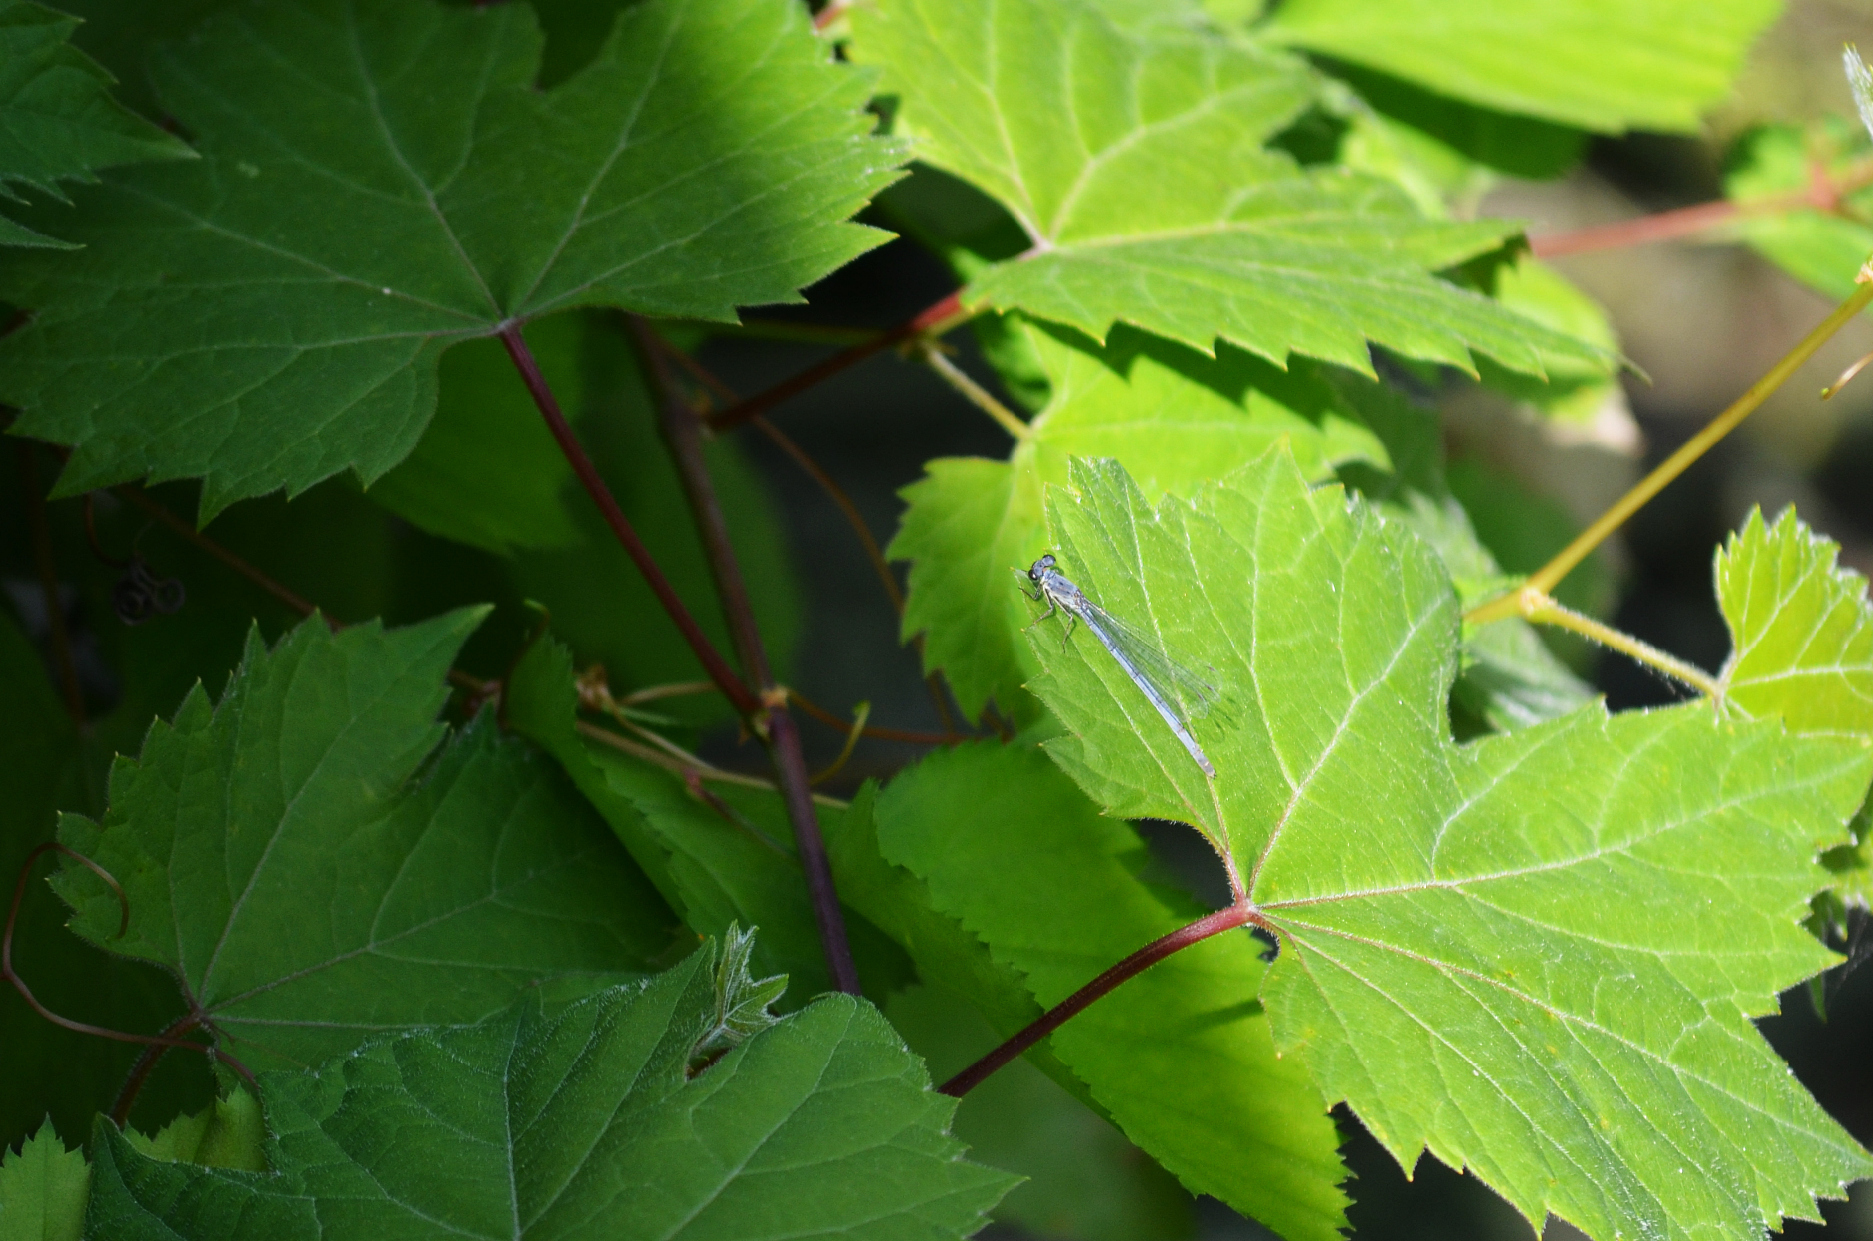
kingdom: Animalia
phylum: Arthropoda
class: Insecta
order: Odonata
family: Coenagrionidae
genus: Ischnura
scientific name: Ischnura verticalis
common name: Eastern forktail
